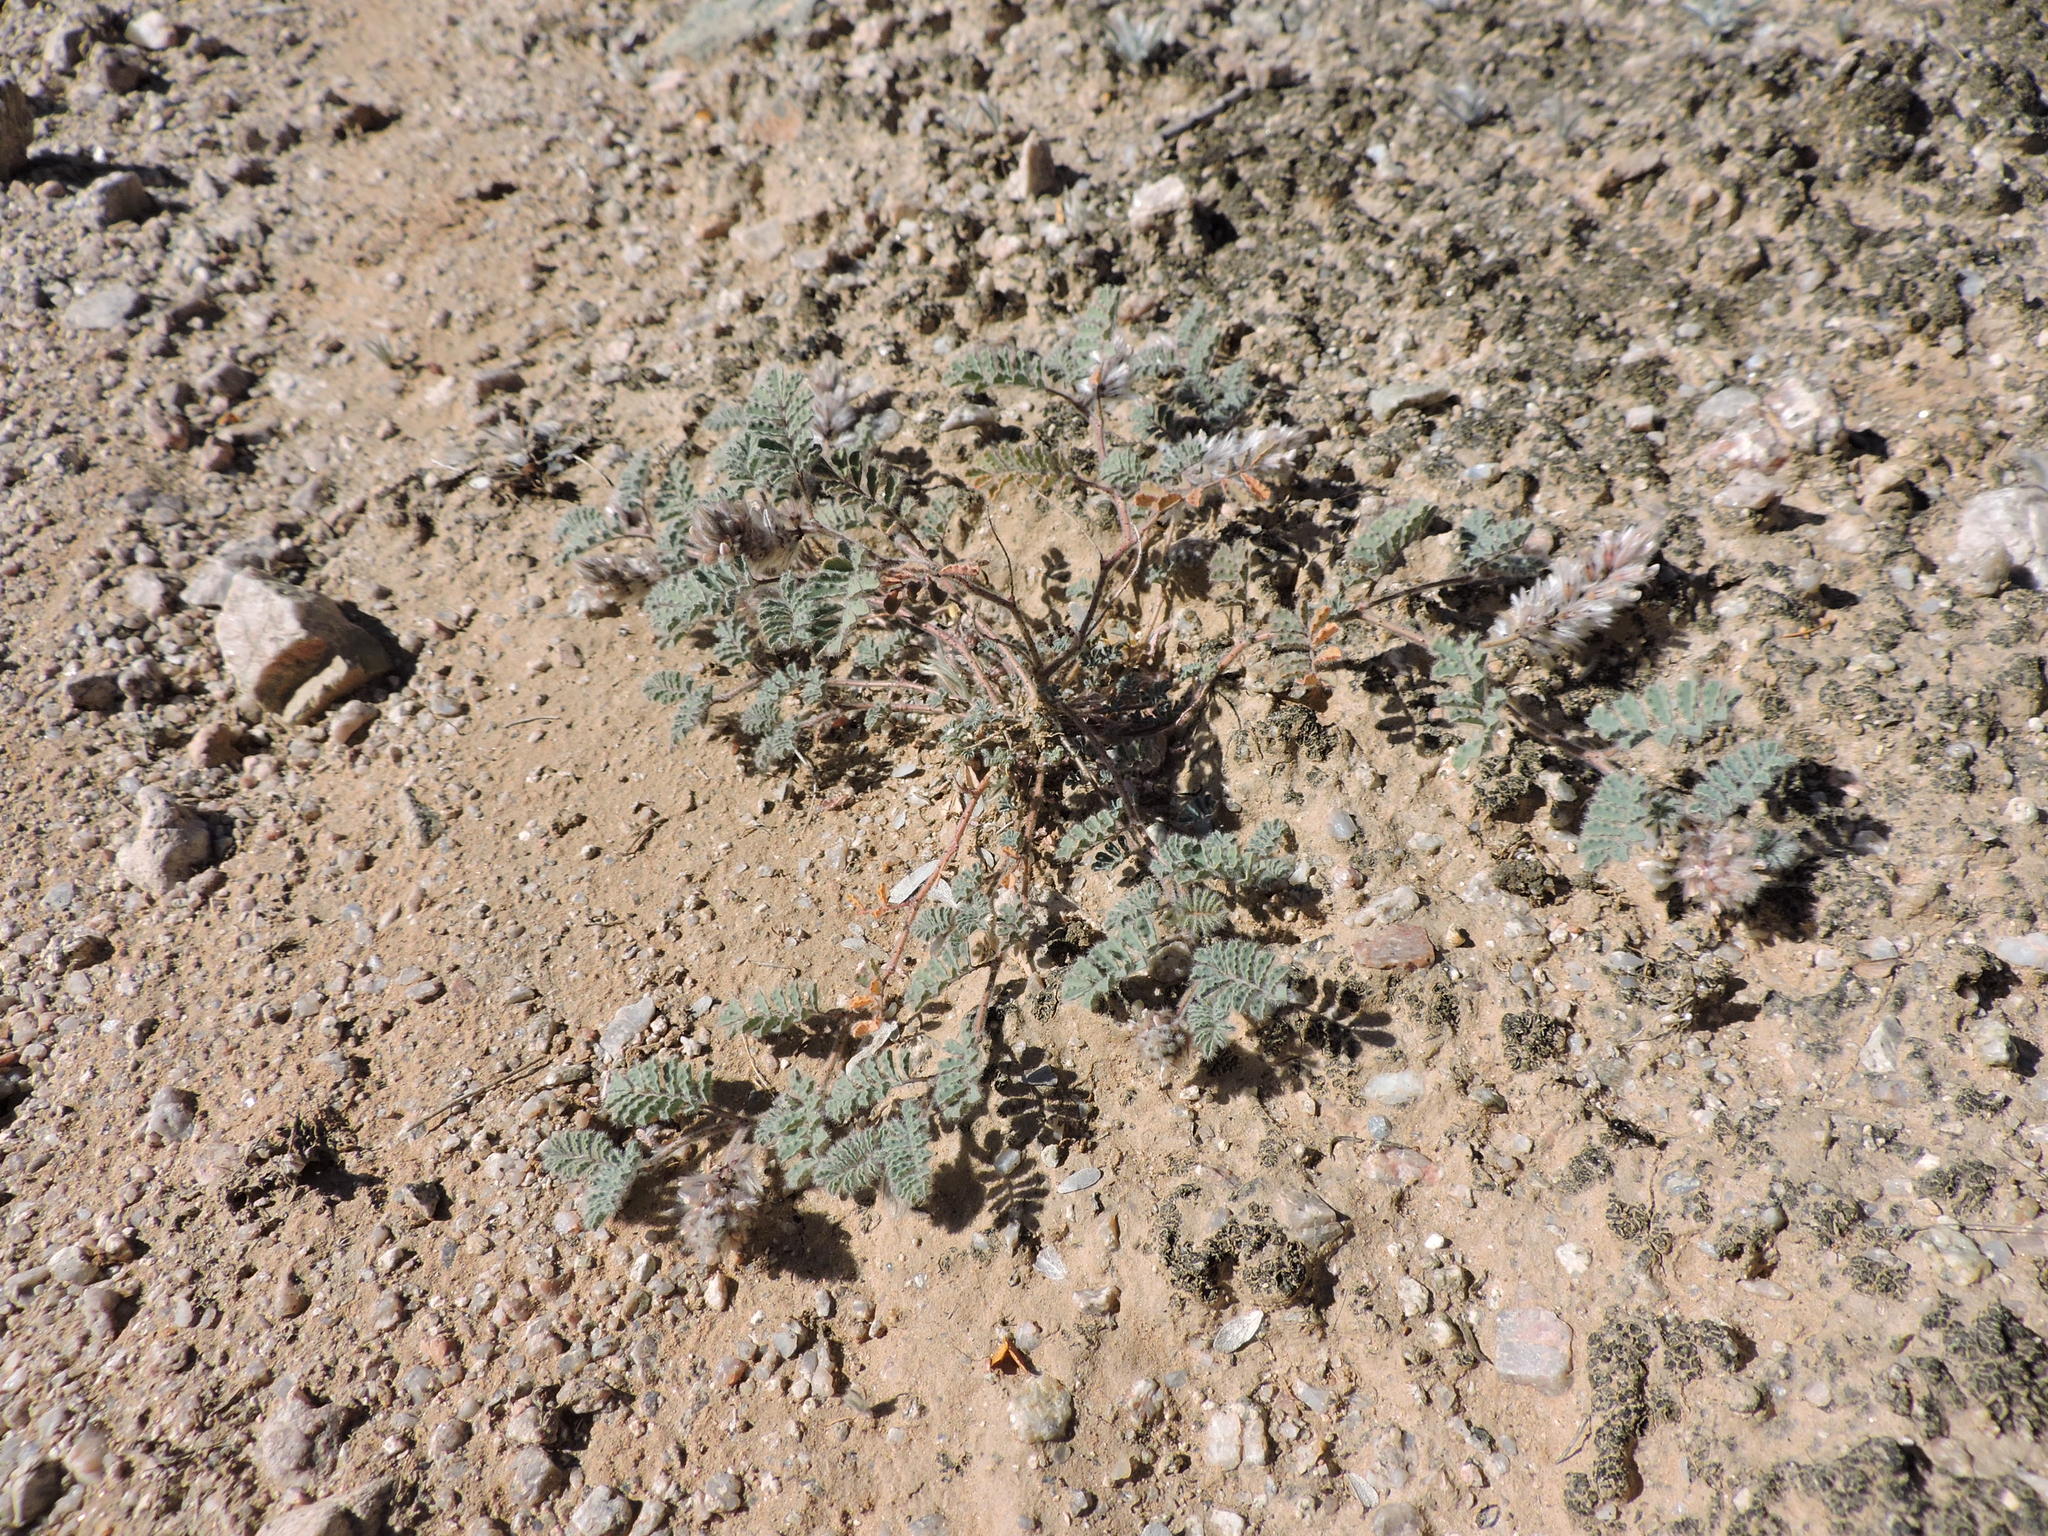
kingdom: Plantae
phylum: Tracheophyta
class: Magnoliopsida
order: Fabales
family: Fabaceae
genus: Dalea
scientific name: Dalea mollissima
